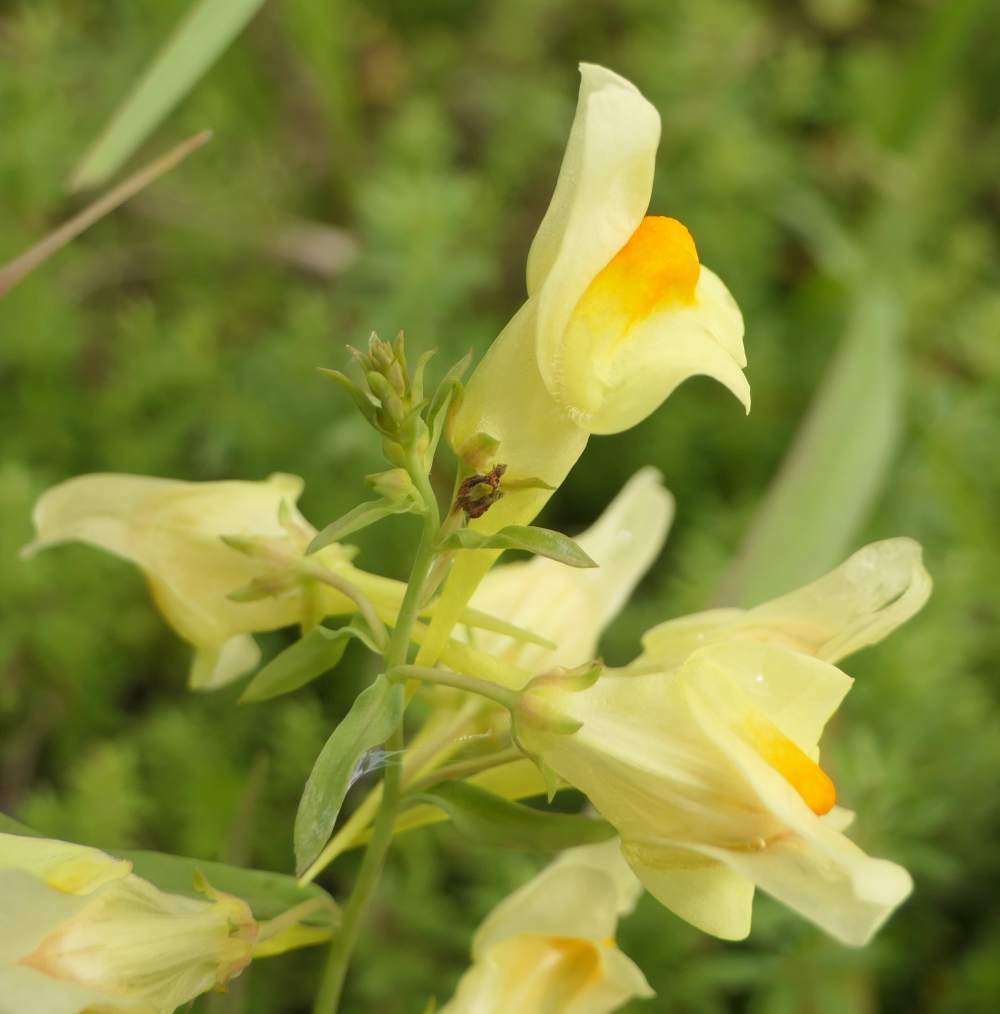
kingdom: Plantae
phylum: Tracheophyta
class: Magnoliopsida
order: Lamiales
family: Plantaginaceae
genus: Linaria
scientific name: Linaria vulgaris
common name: Butter and eggs
